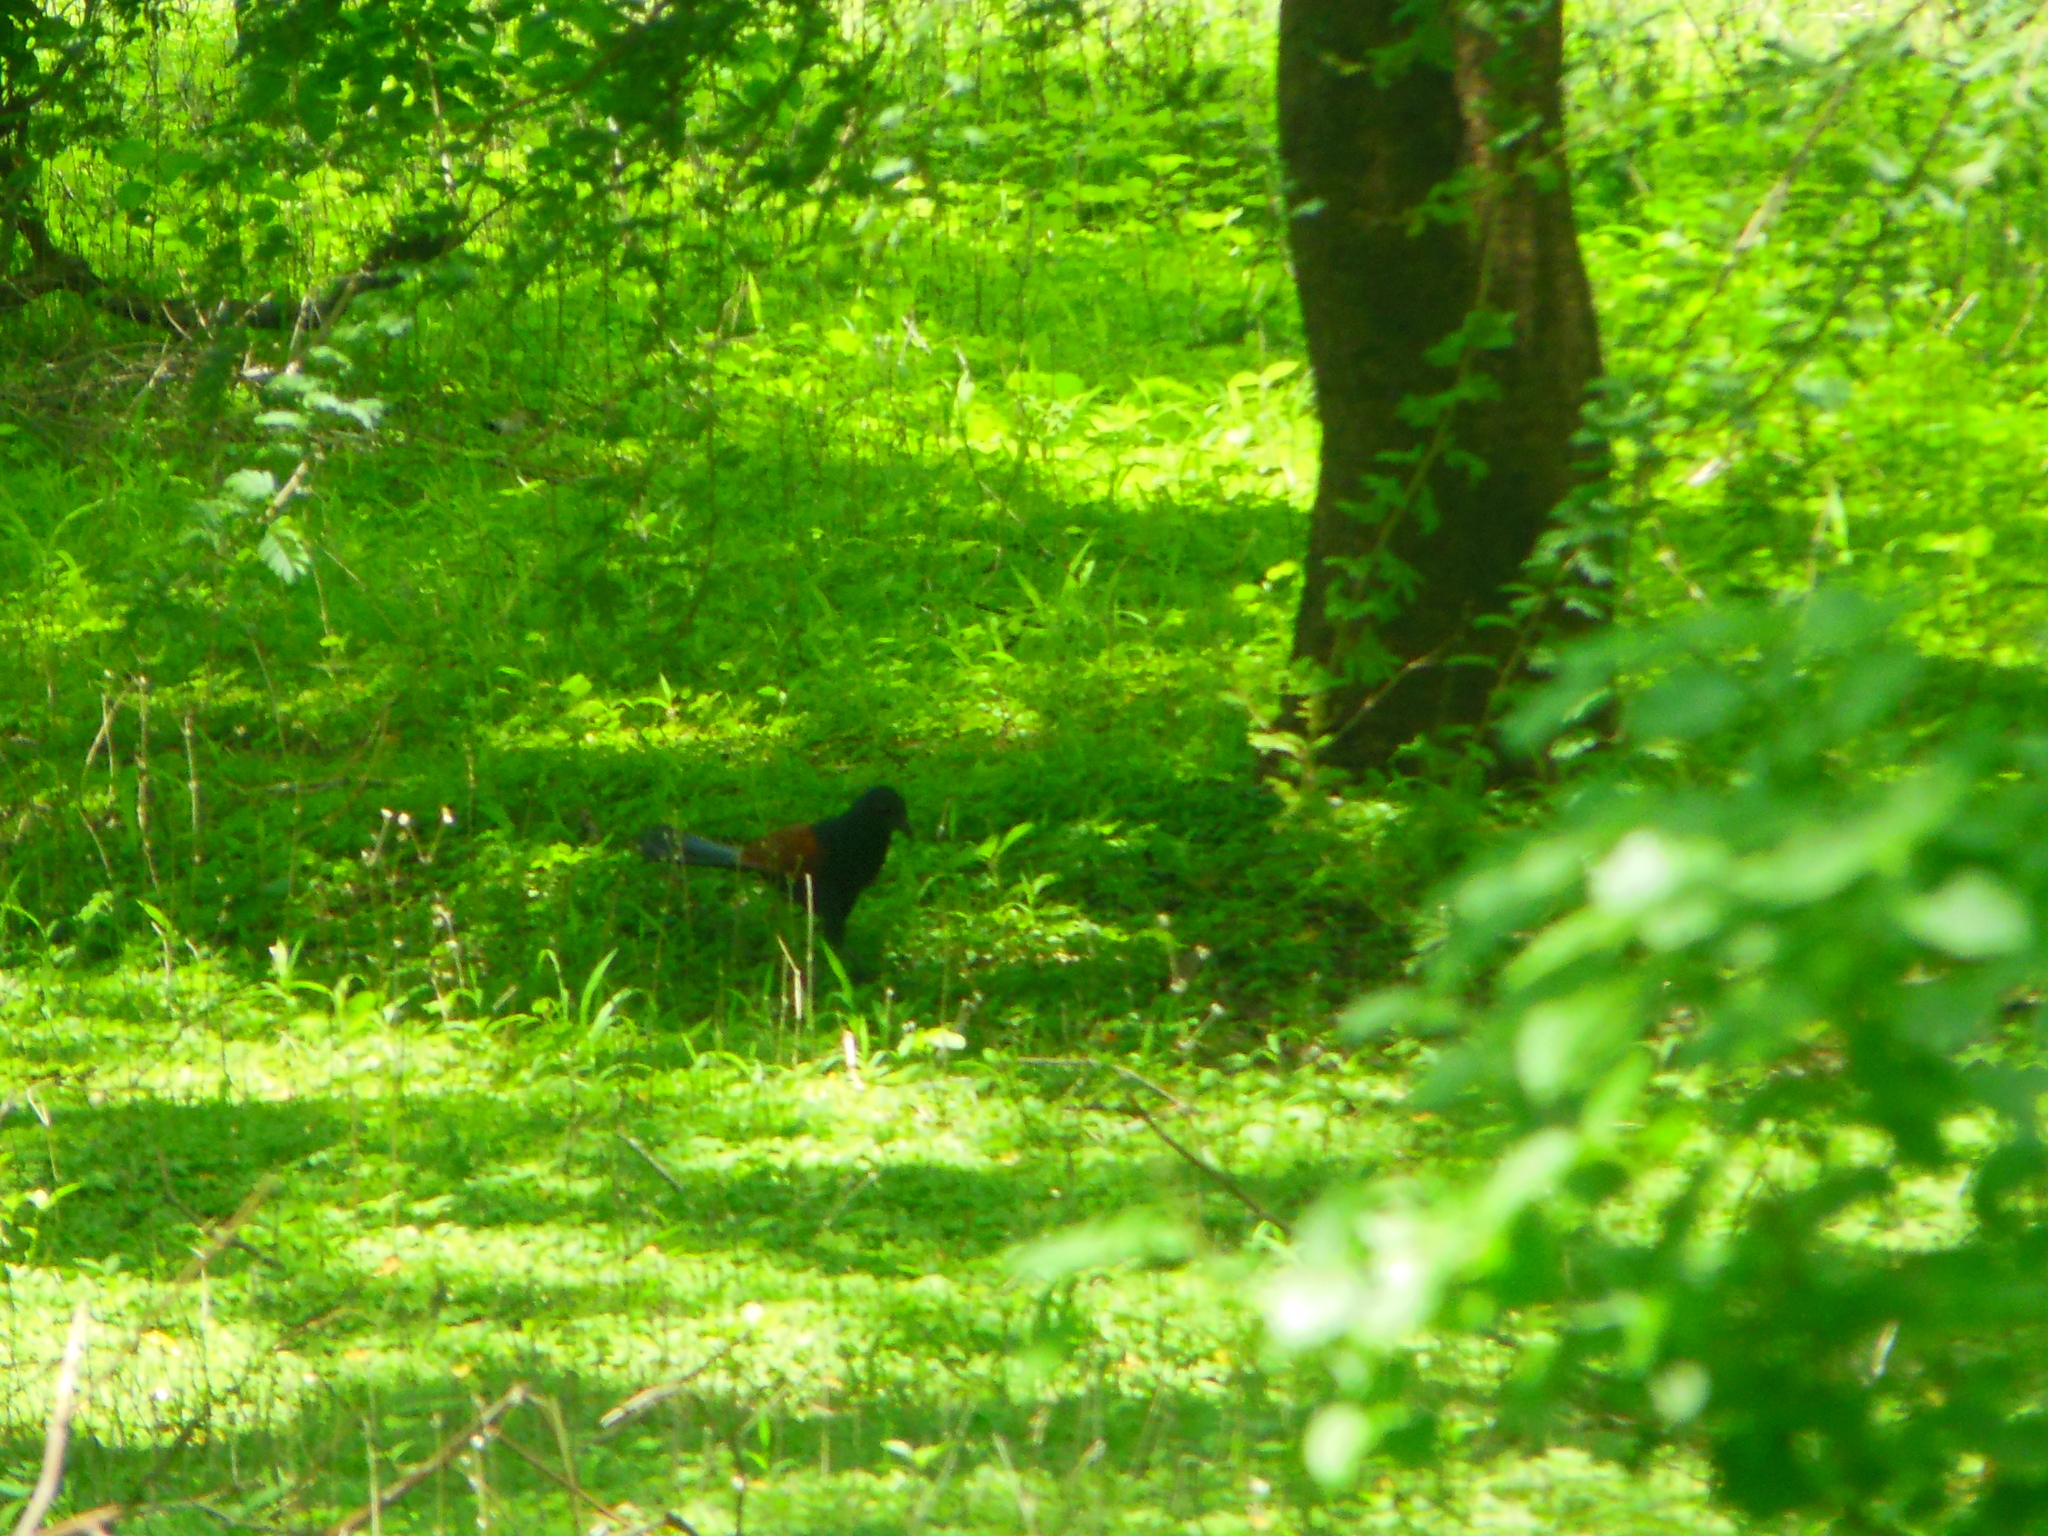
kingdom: Animalia
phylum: Chordata
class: Aves
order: Cuculiformes
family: Cuculidae
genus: Centropus
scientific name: Centropus sinensis
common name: Greater coucal
